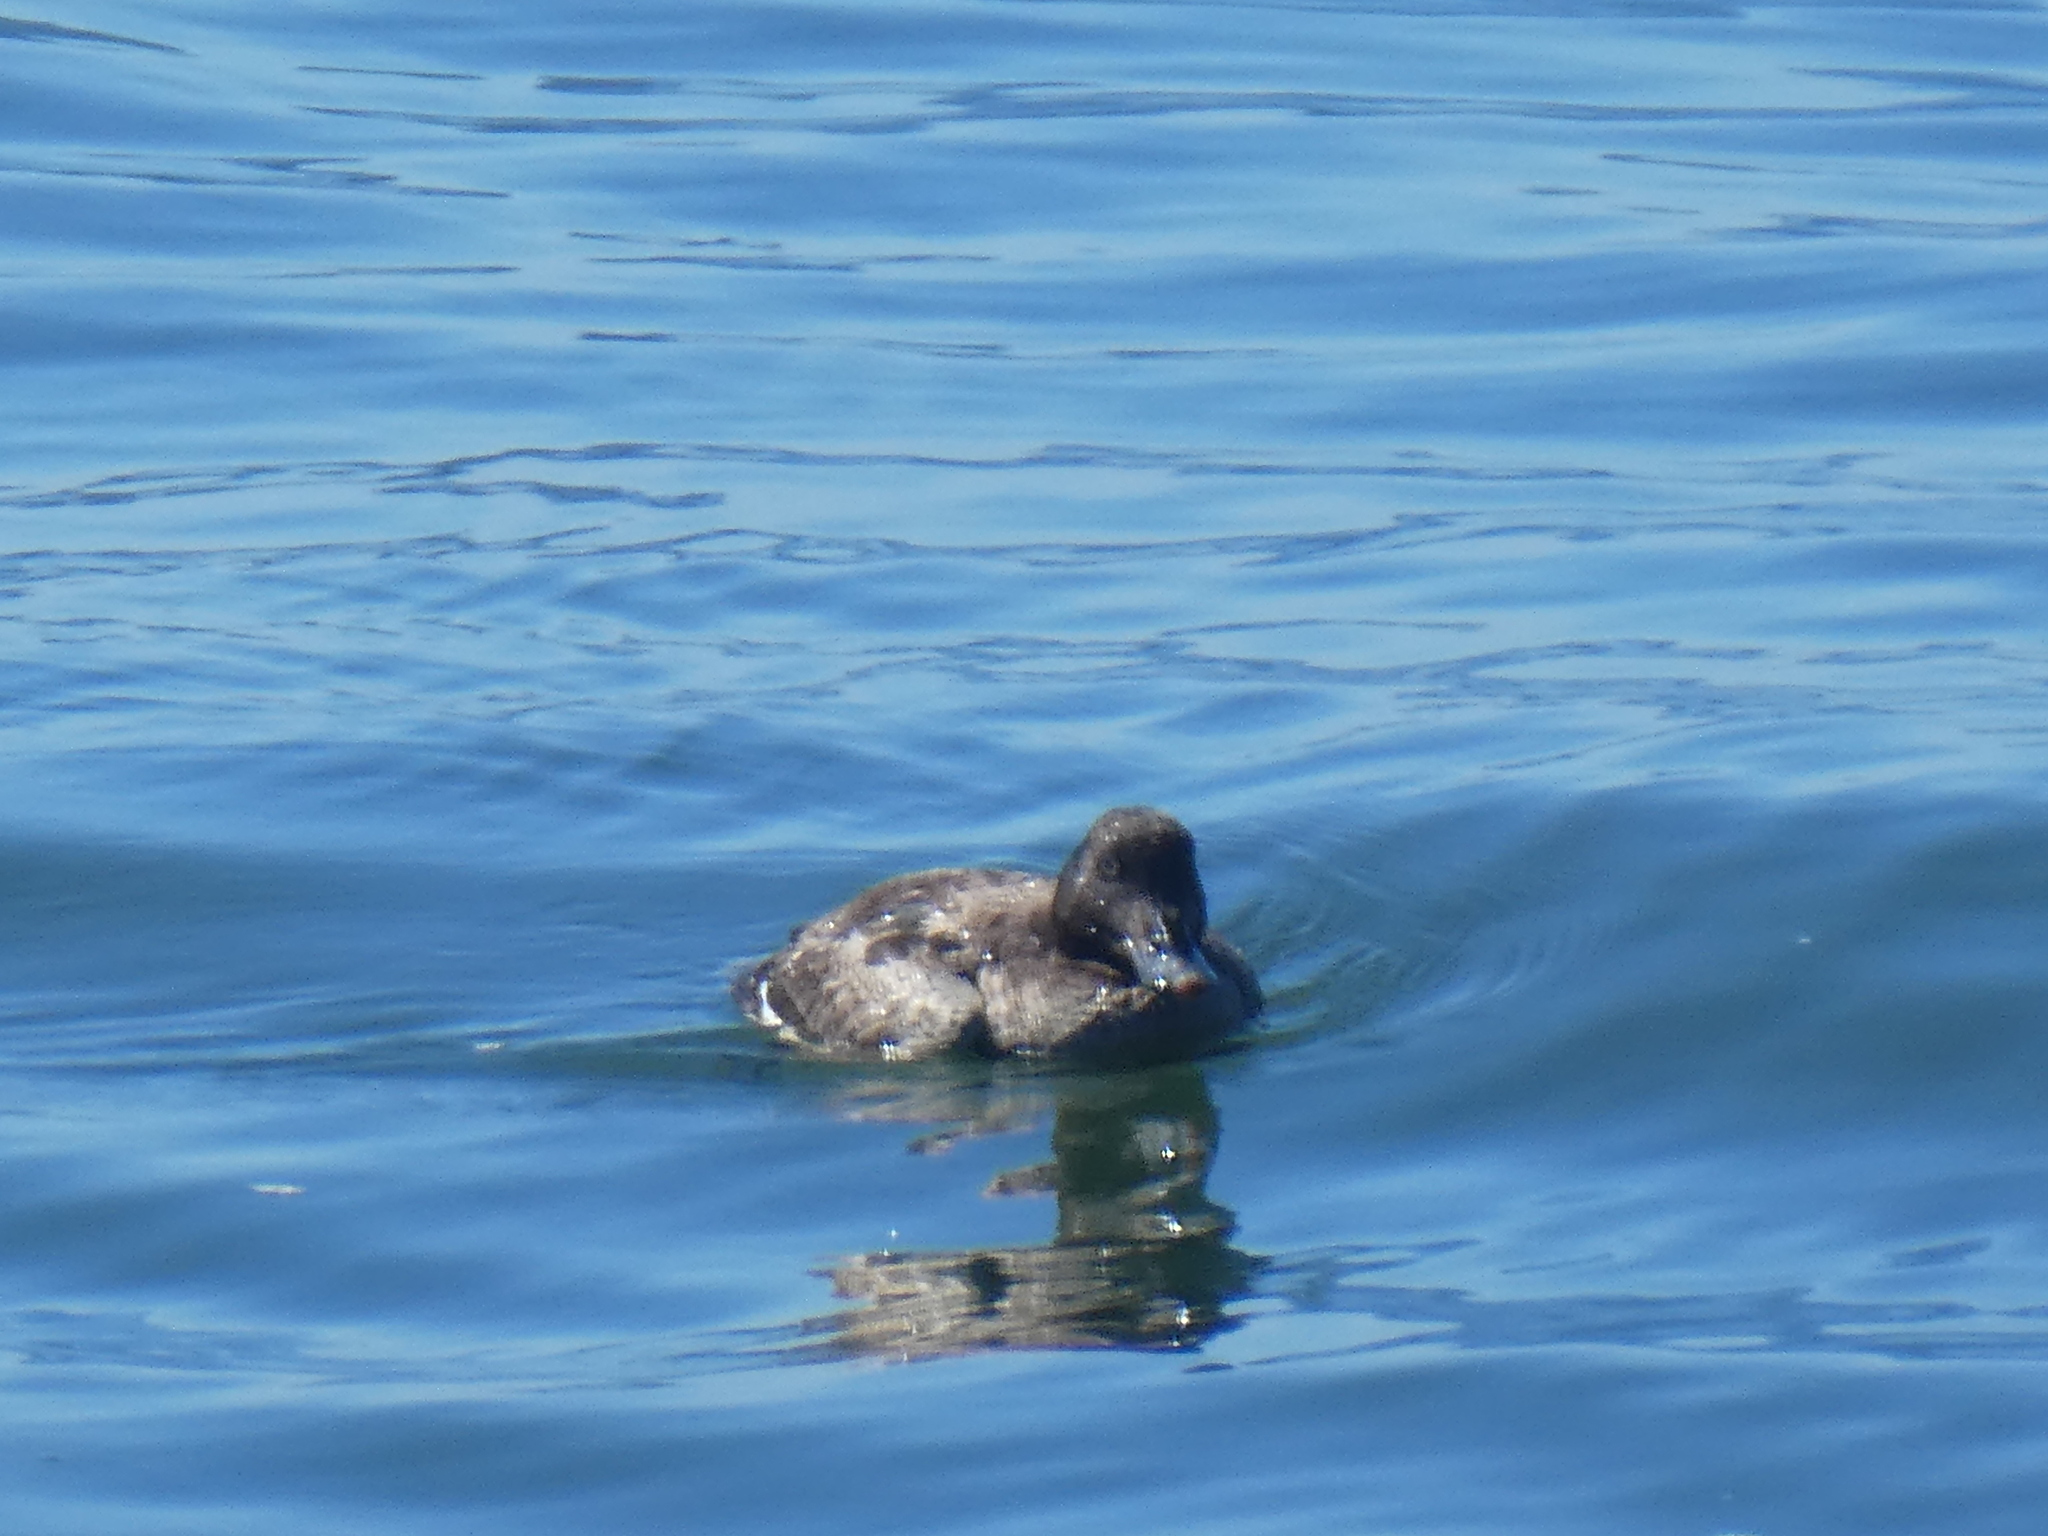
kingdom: Animalia
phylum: Chordata
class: Aves
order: Anseriformes
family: Anatidae
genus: Melanitta
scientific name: Melanitta deglandi
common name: White-winged scoter
